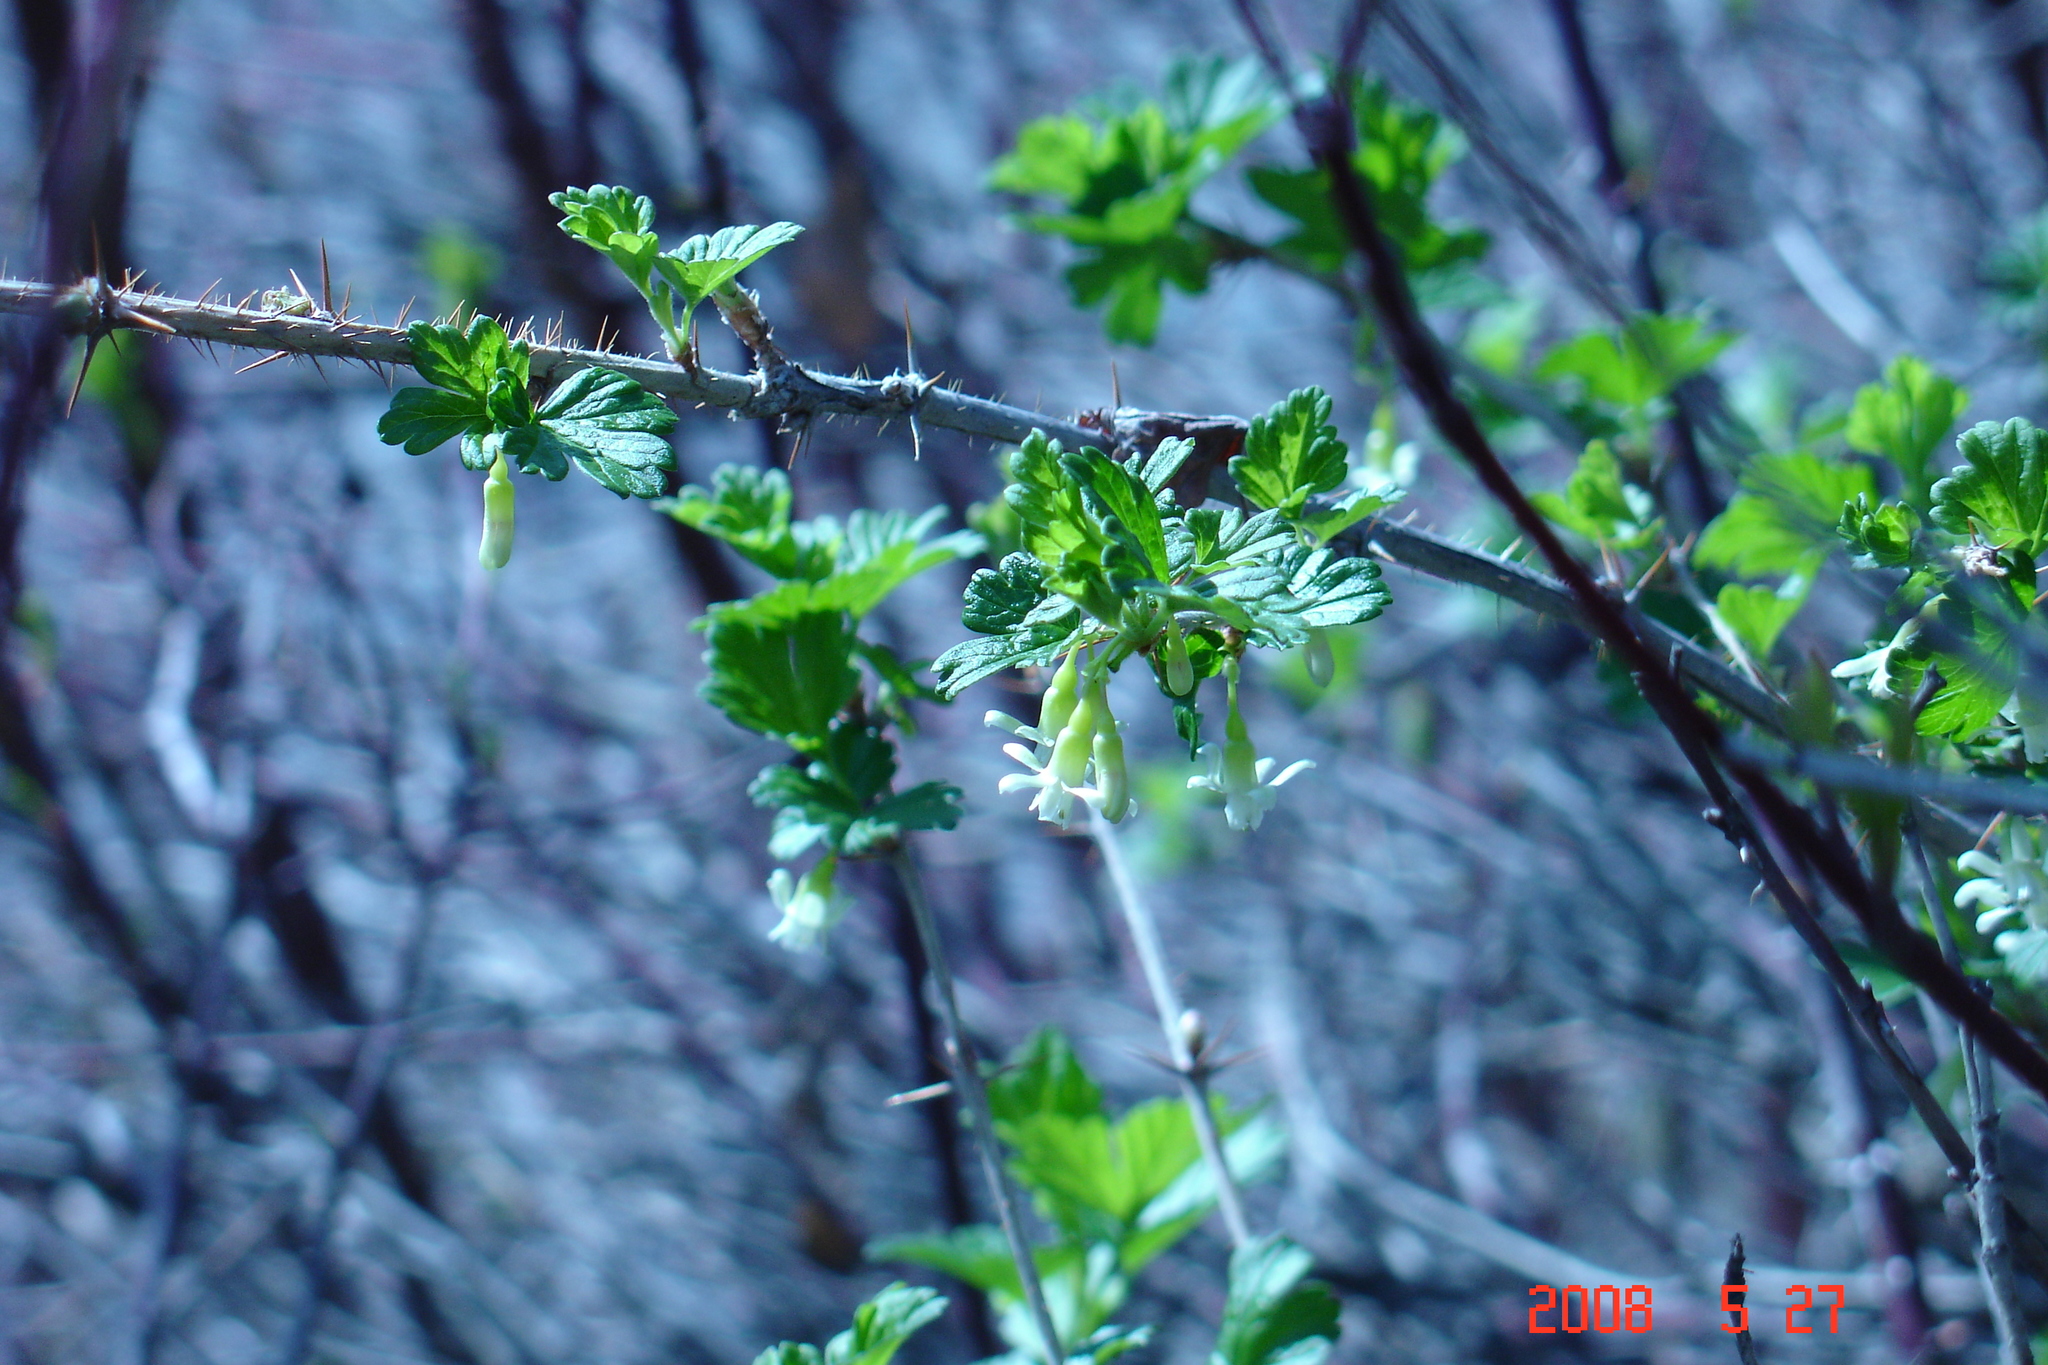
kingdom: Plantae
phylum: Tracheophyta
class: Magnoliopsida
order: Saxifragales
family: Grossulariaceae
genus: Ribes
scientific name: Ribes oxyacanthoides
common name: Northern gooseberry
